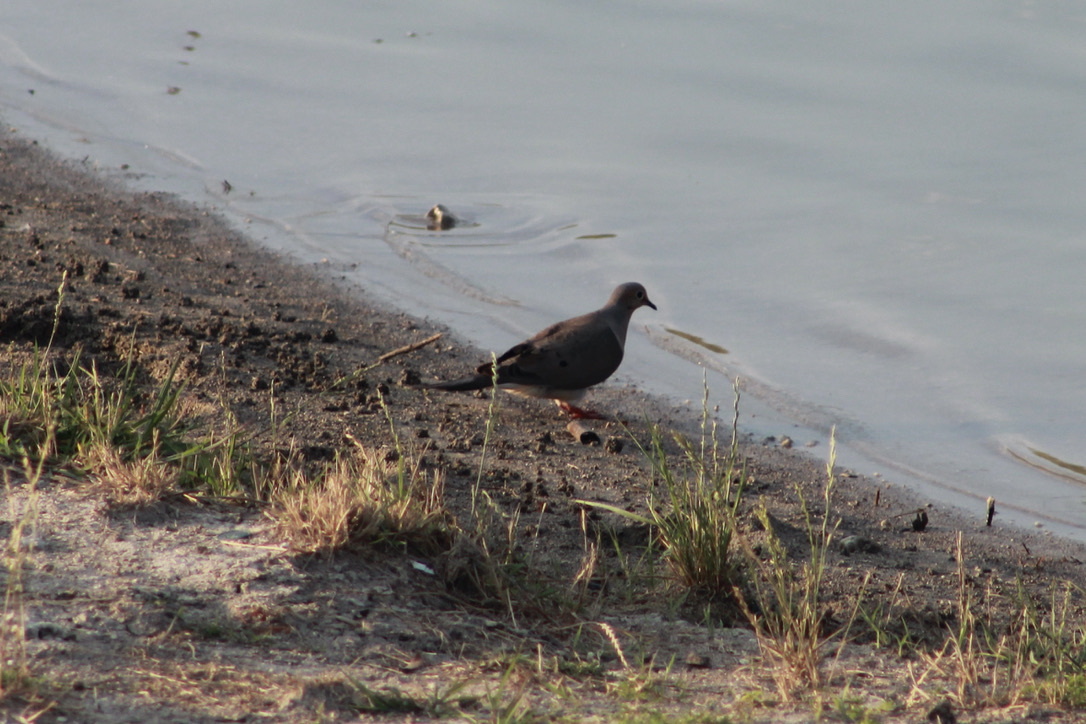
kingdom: Animalia
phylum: Chordata
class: Aves
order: Columbiformes
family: Columbidae
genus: Zenaida
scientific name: Zenaida macroura
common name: Mourning dove
